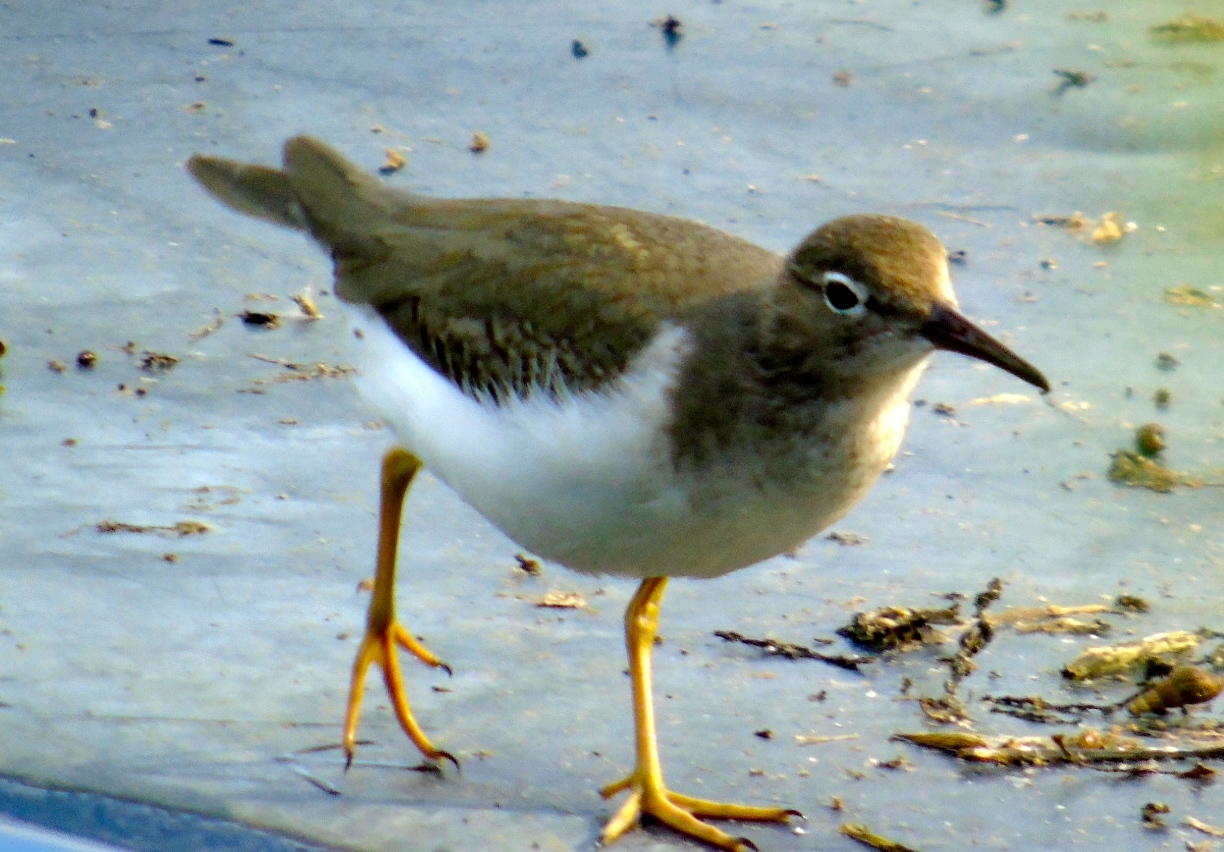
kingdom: Animalia
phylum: Chordata
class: Aves
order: Charadriiformes
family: Scolopacidae
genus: Actitis
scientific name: Actitis macularius
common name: Spotted sandpiper
